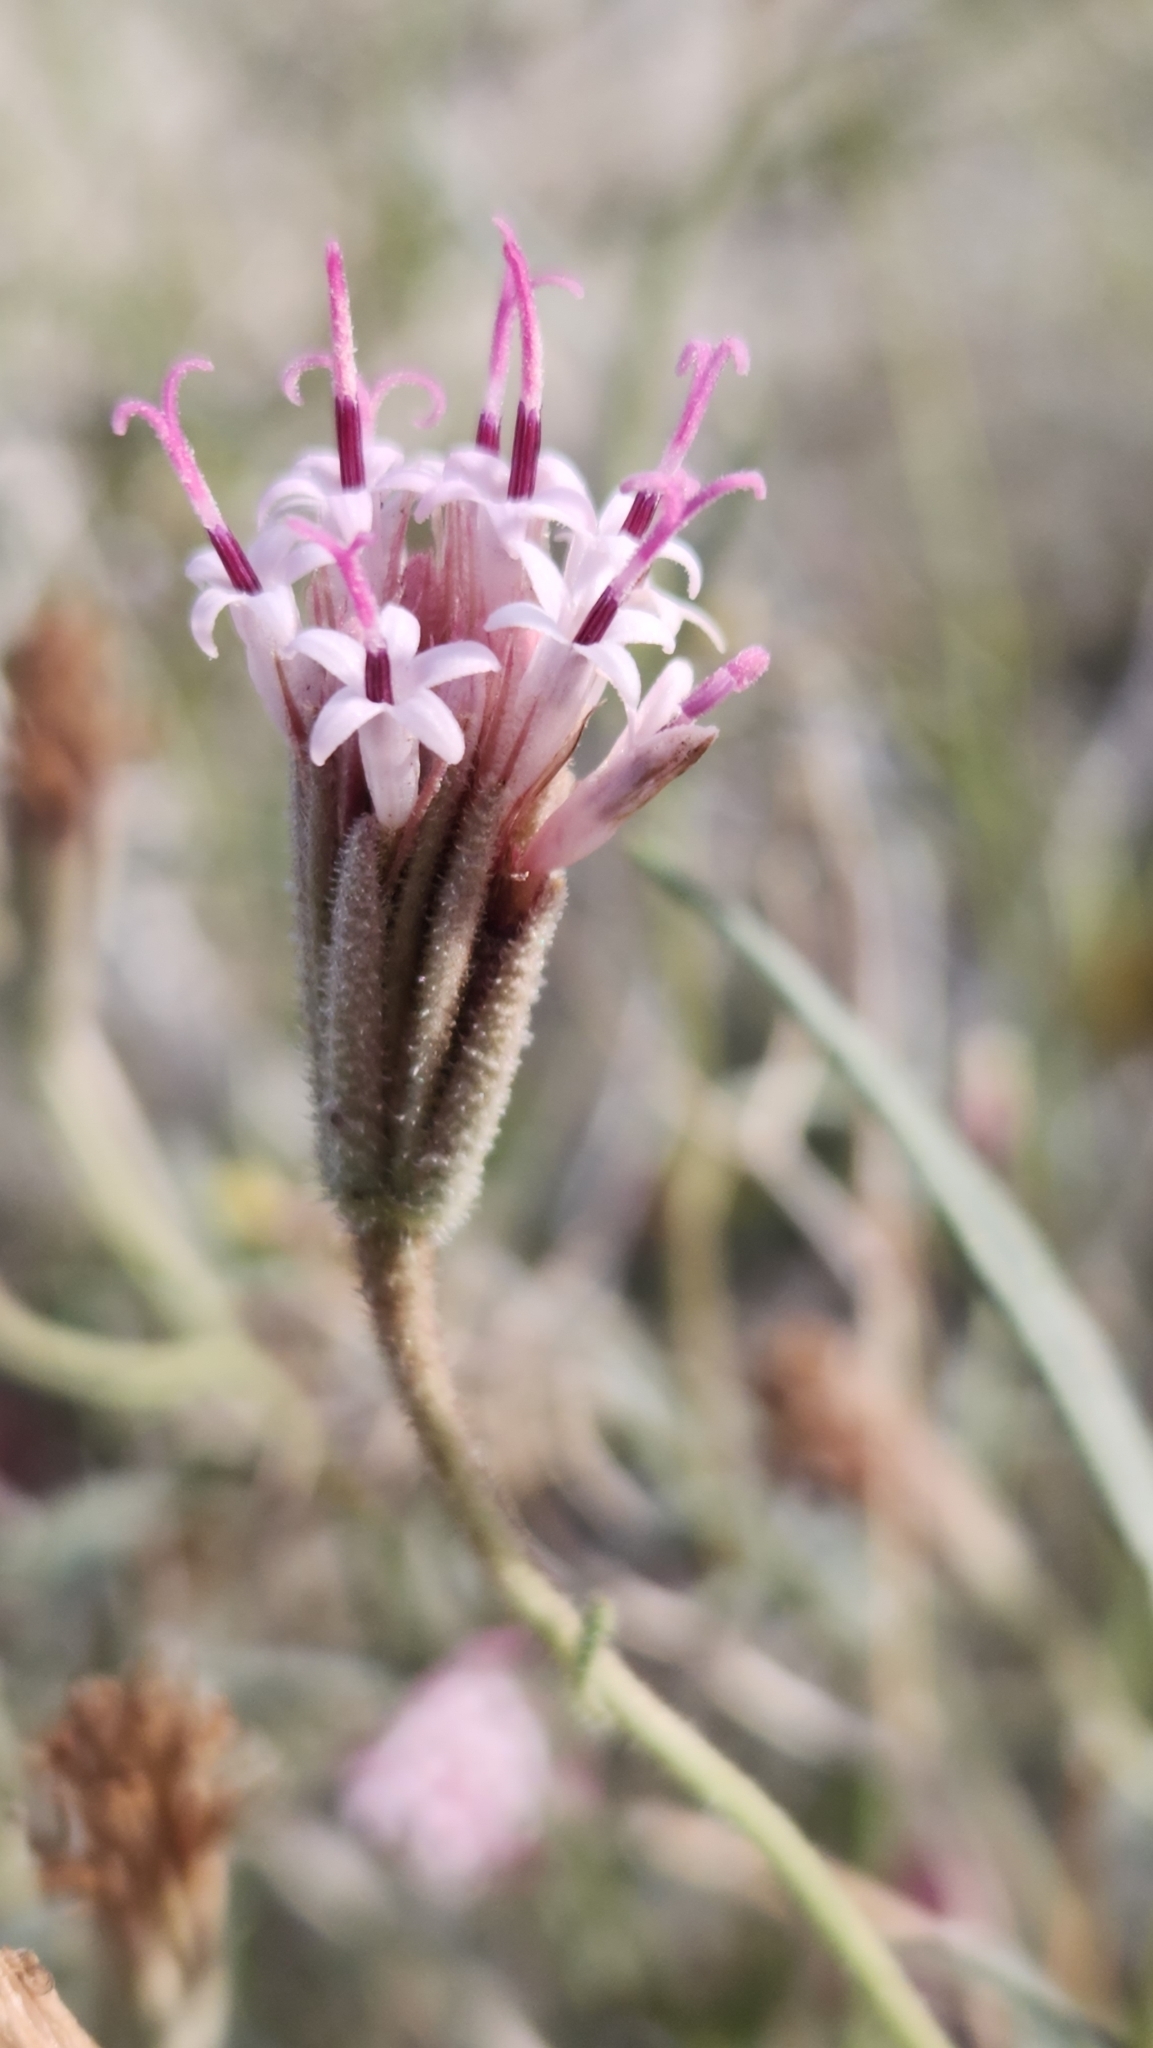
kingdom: Plantae
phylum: Tracheophyta
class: Magnoliopsida
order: Asterales
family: Asteraceae
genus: Palafoxia
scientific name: Palafoxia arida
